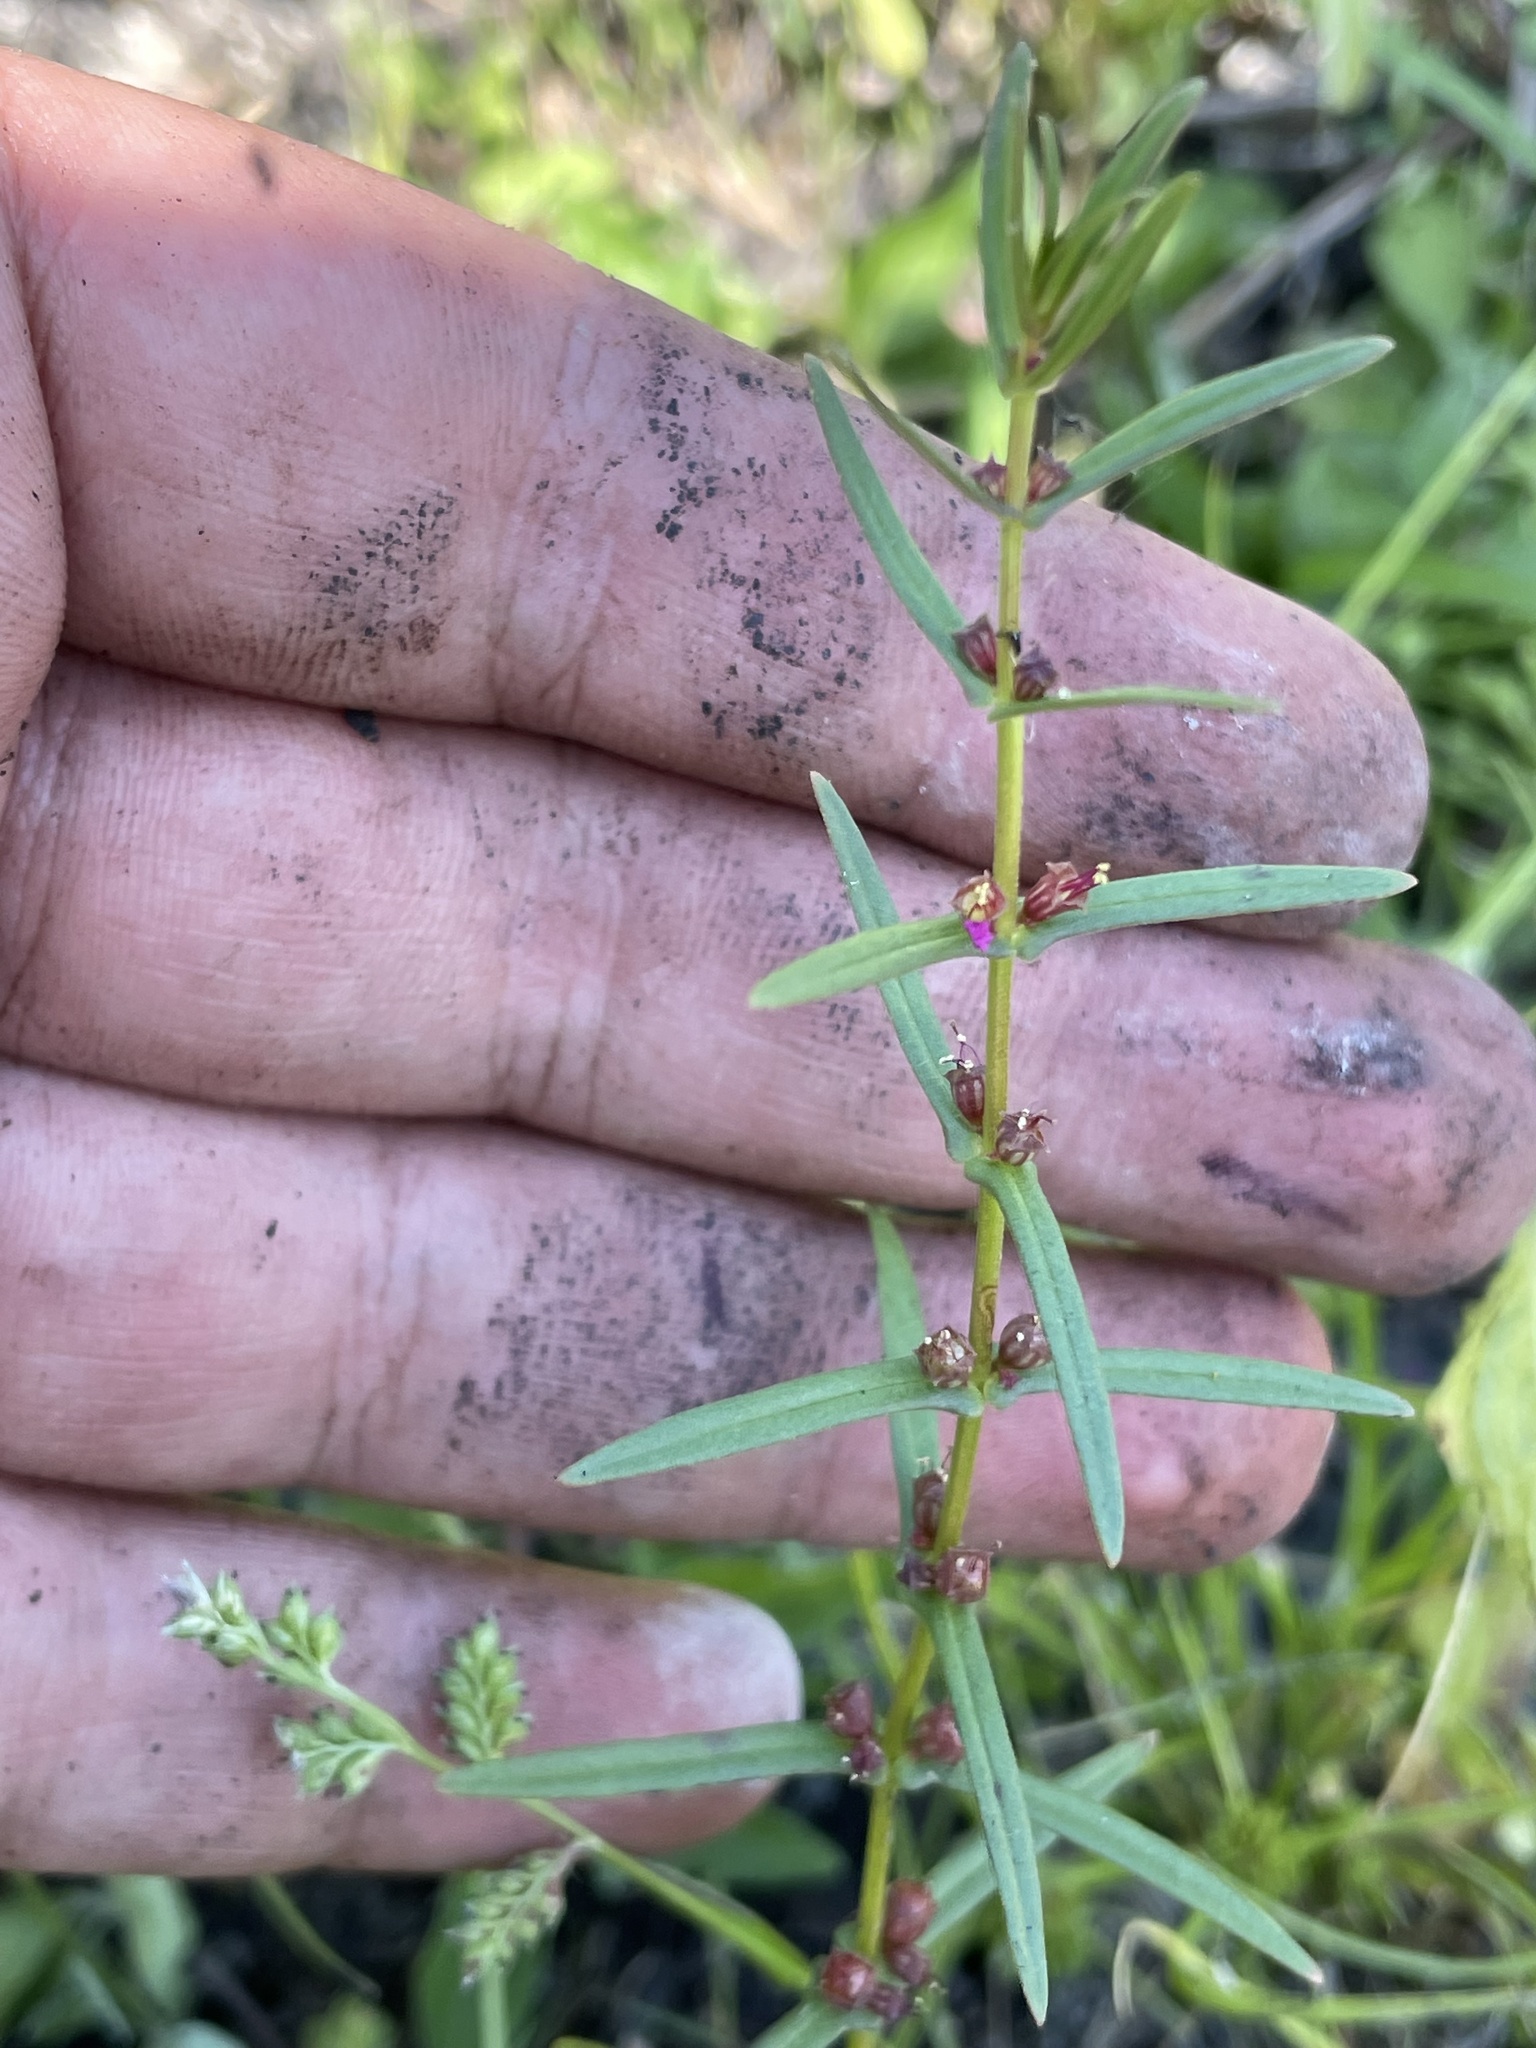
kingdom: Plantae
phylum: Tracheophyta
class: Magnoliopsida
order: Myrtales
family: Lythraceae
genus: Ammannia
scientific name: Ammannia coccinea
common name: Valley redstem
